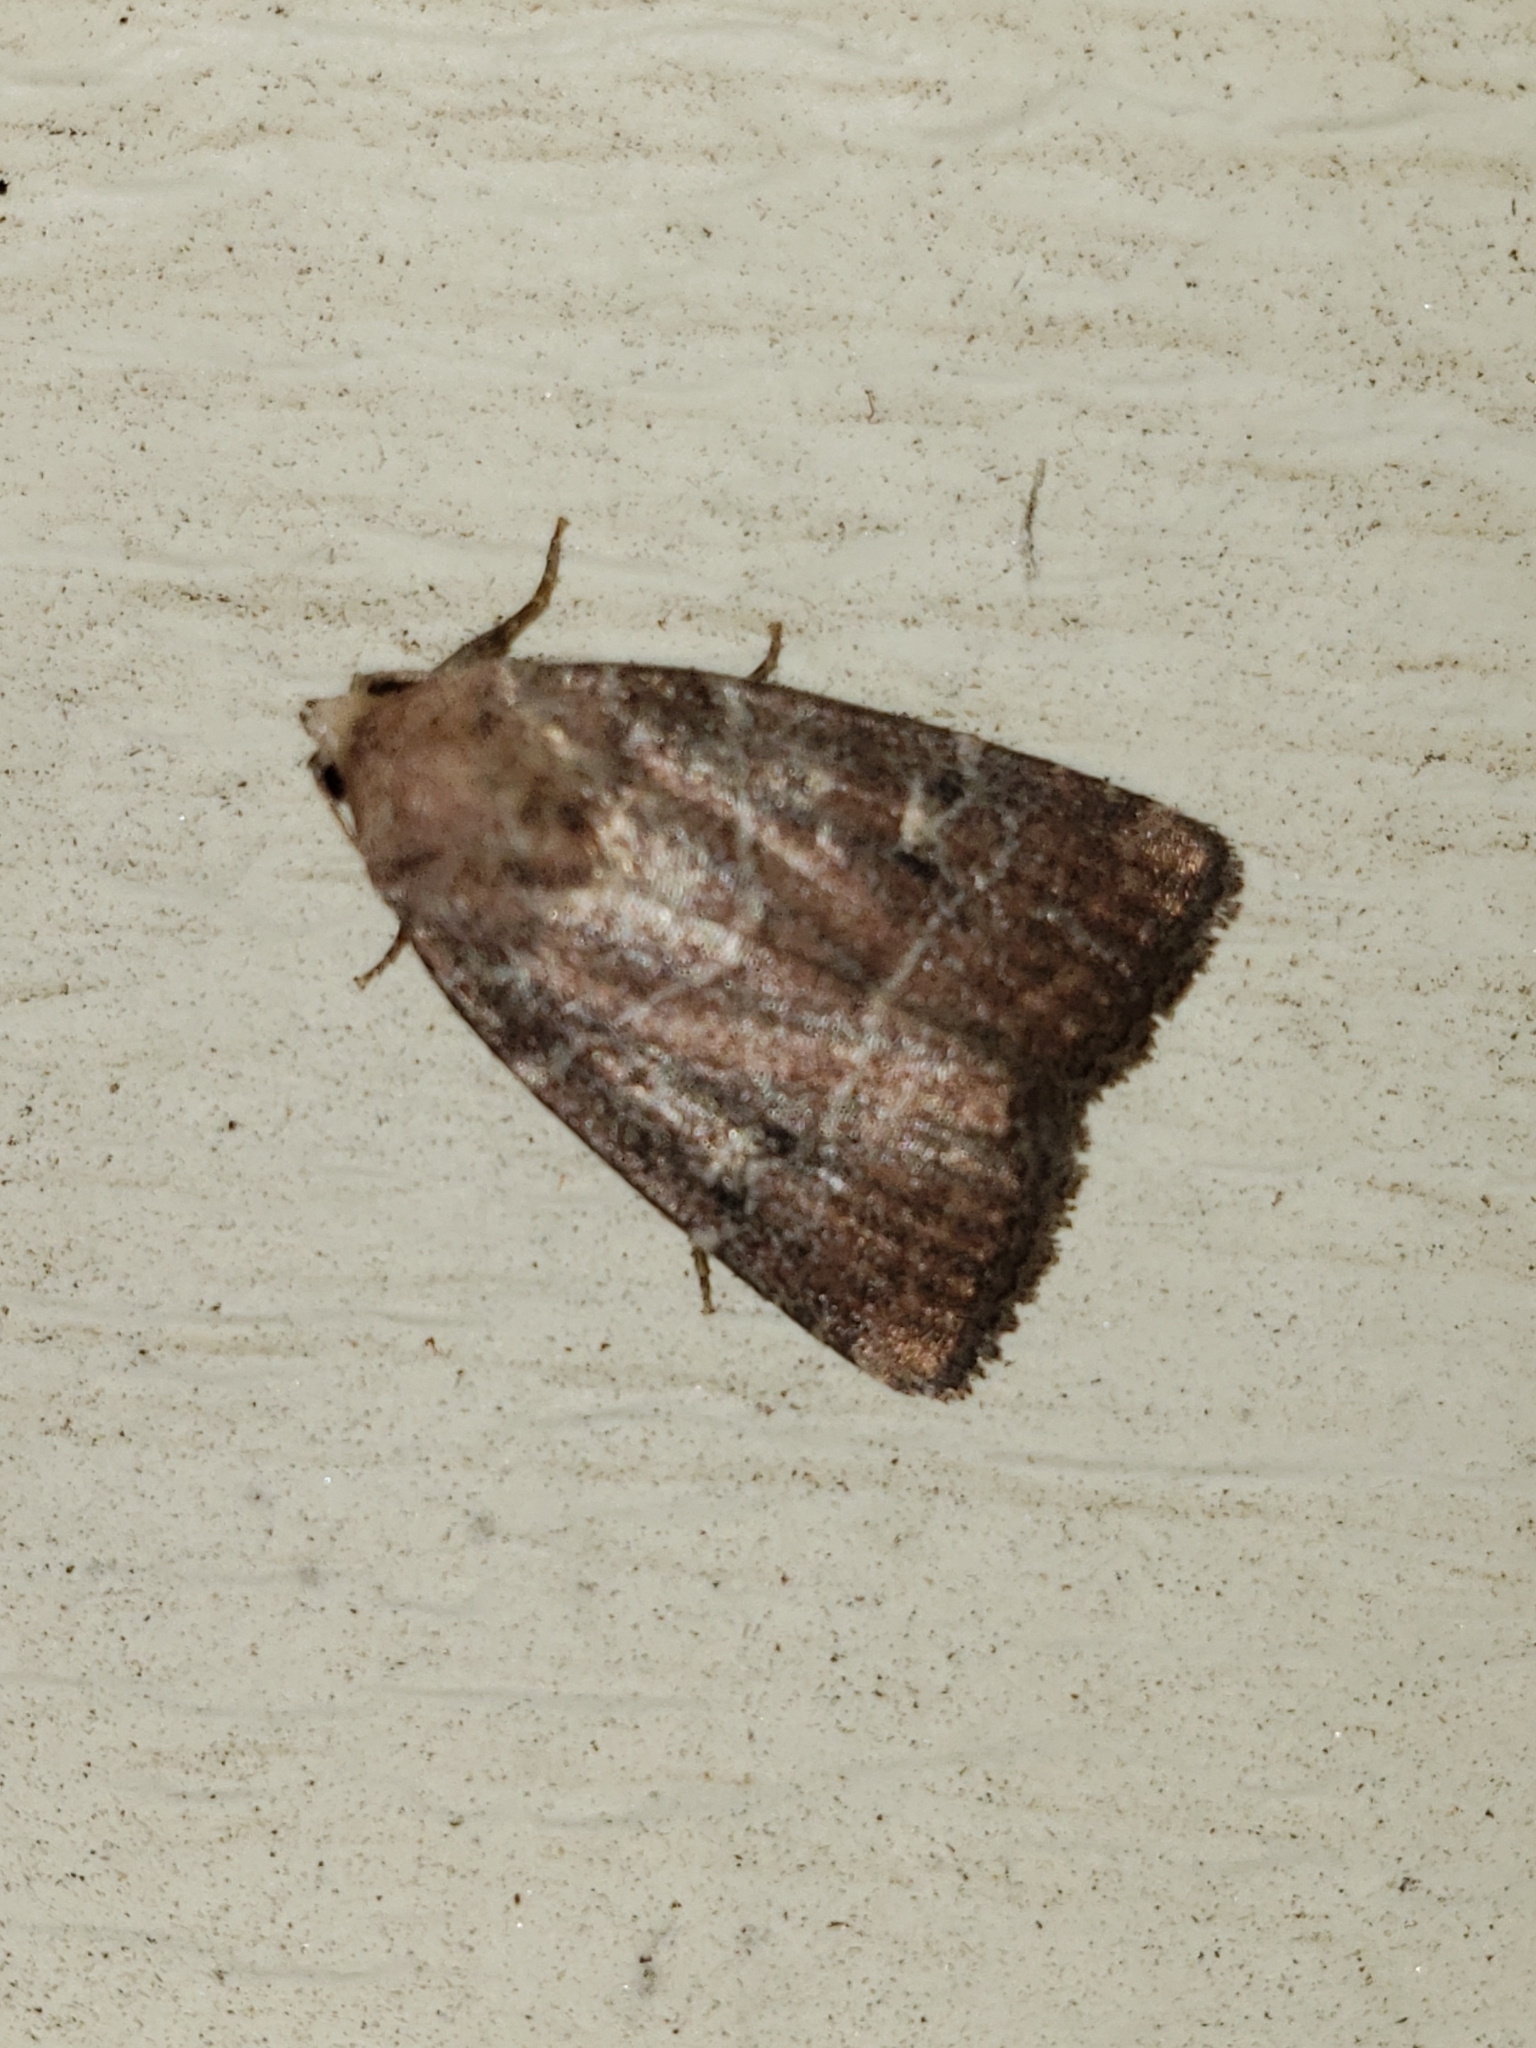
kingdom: Animalia
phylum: Arthropoda
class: Insecta
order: Lepidoptera
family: Noctuidae
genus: Elaphria
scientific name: Elaphria grata
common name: Grateful midget moth
